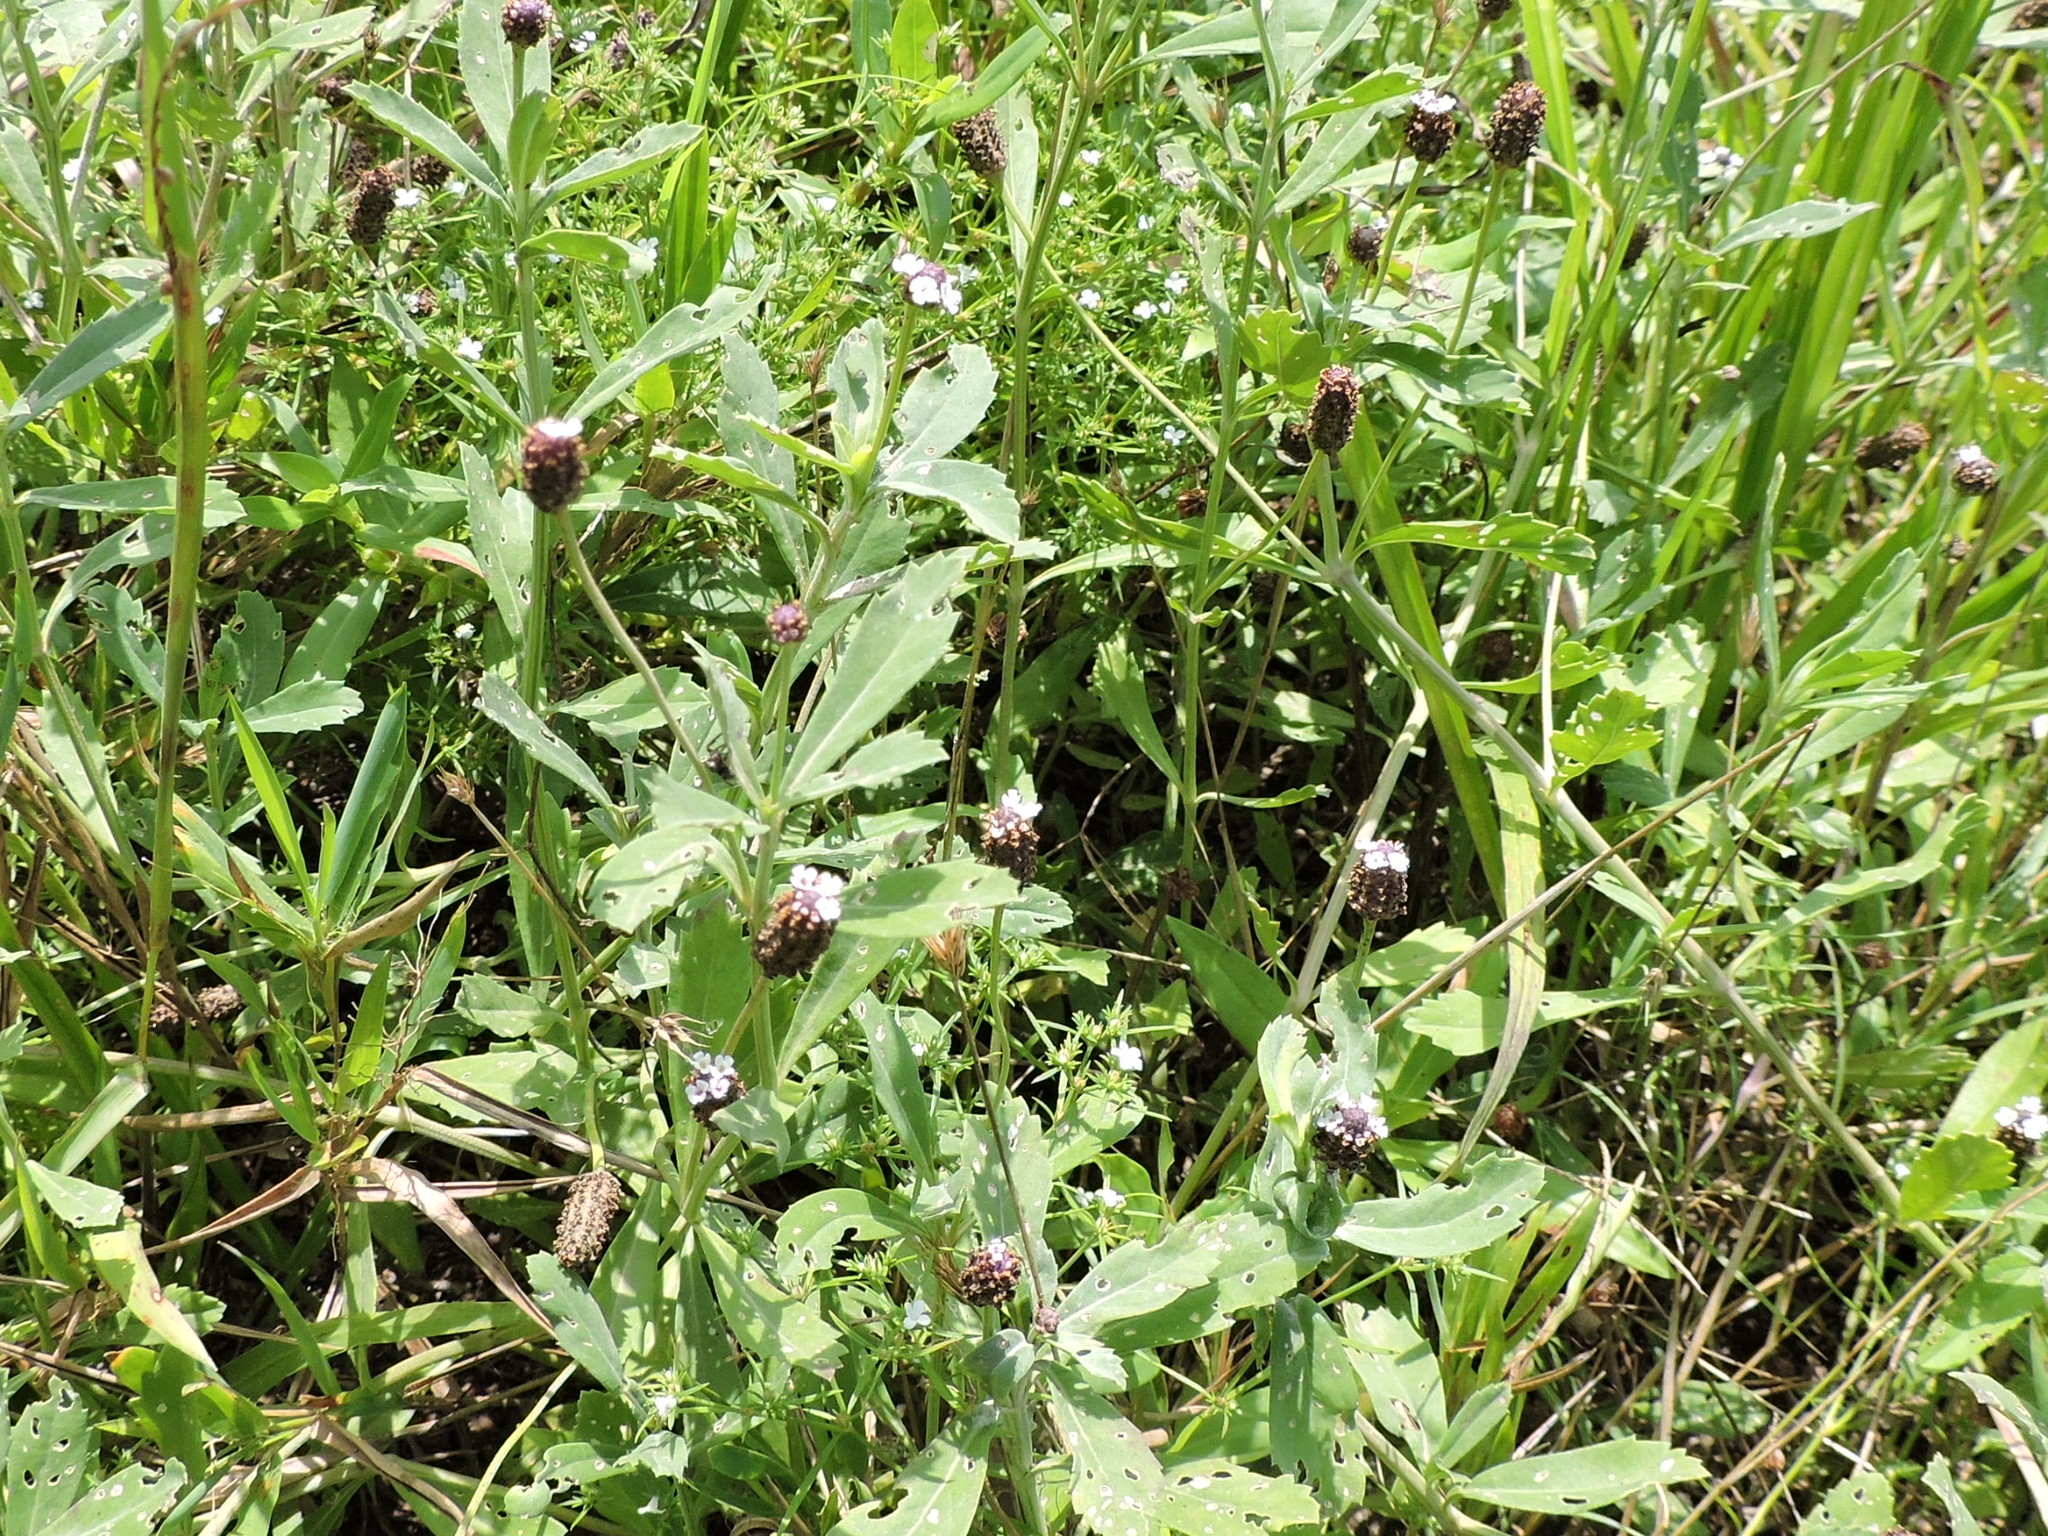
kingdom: Plantae
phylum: Tracheophyta
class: Magnoliopsida
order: Lamiales
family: Verbenaceae
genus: Phyla
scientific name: Phyla nodiflora
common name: Frogfruit
